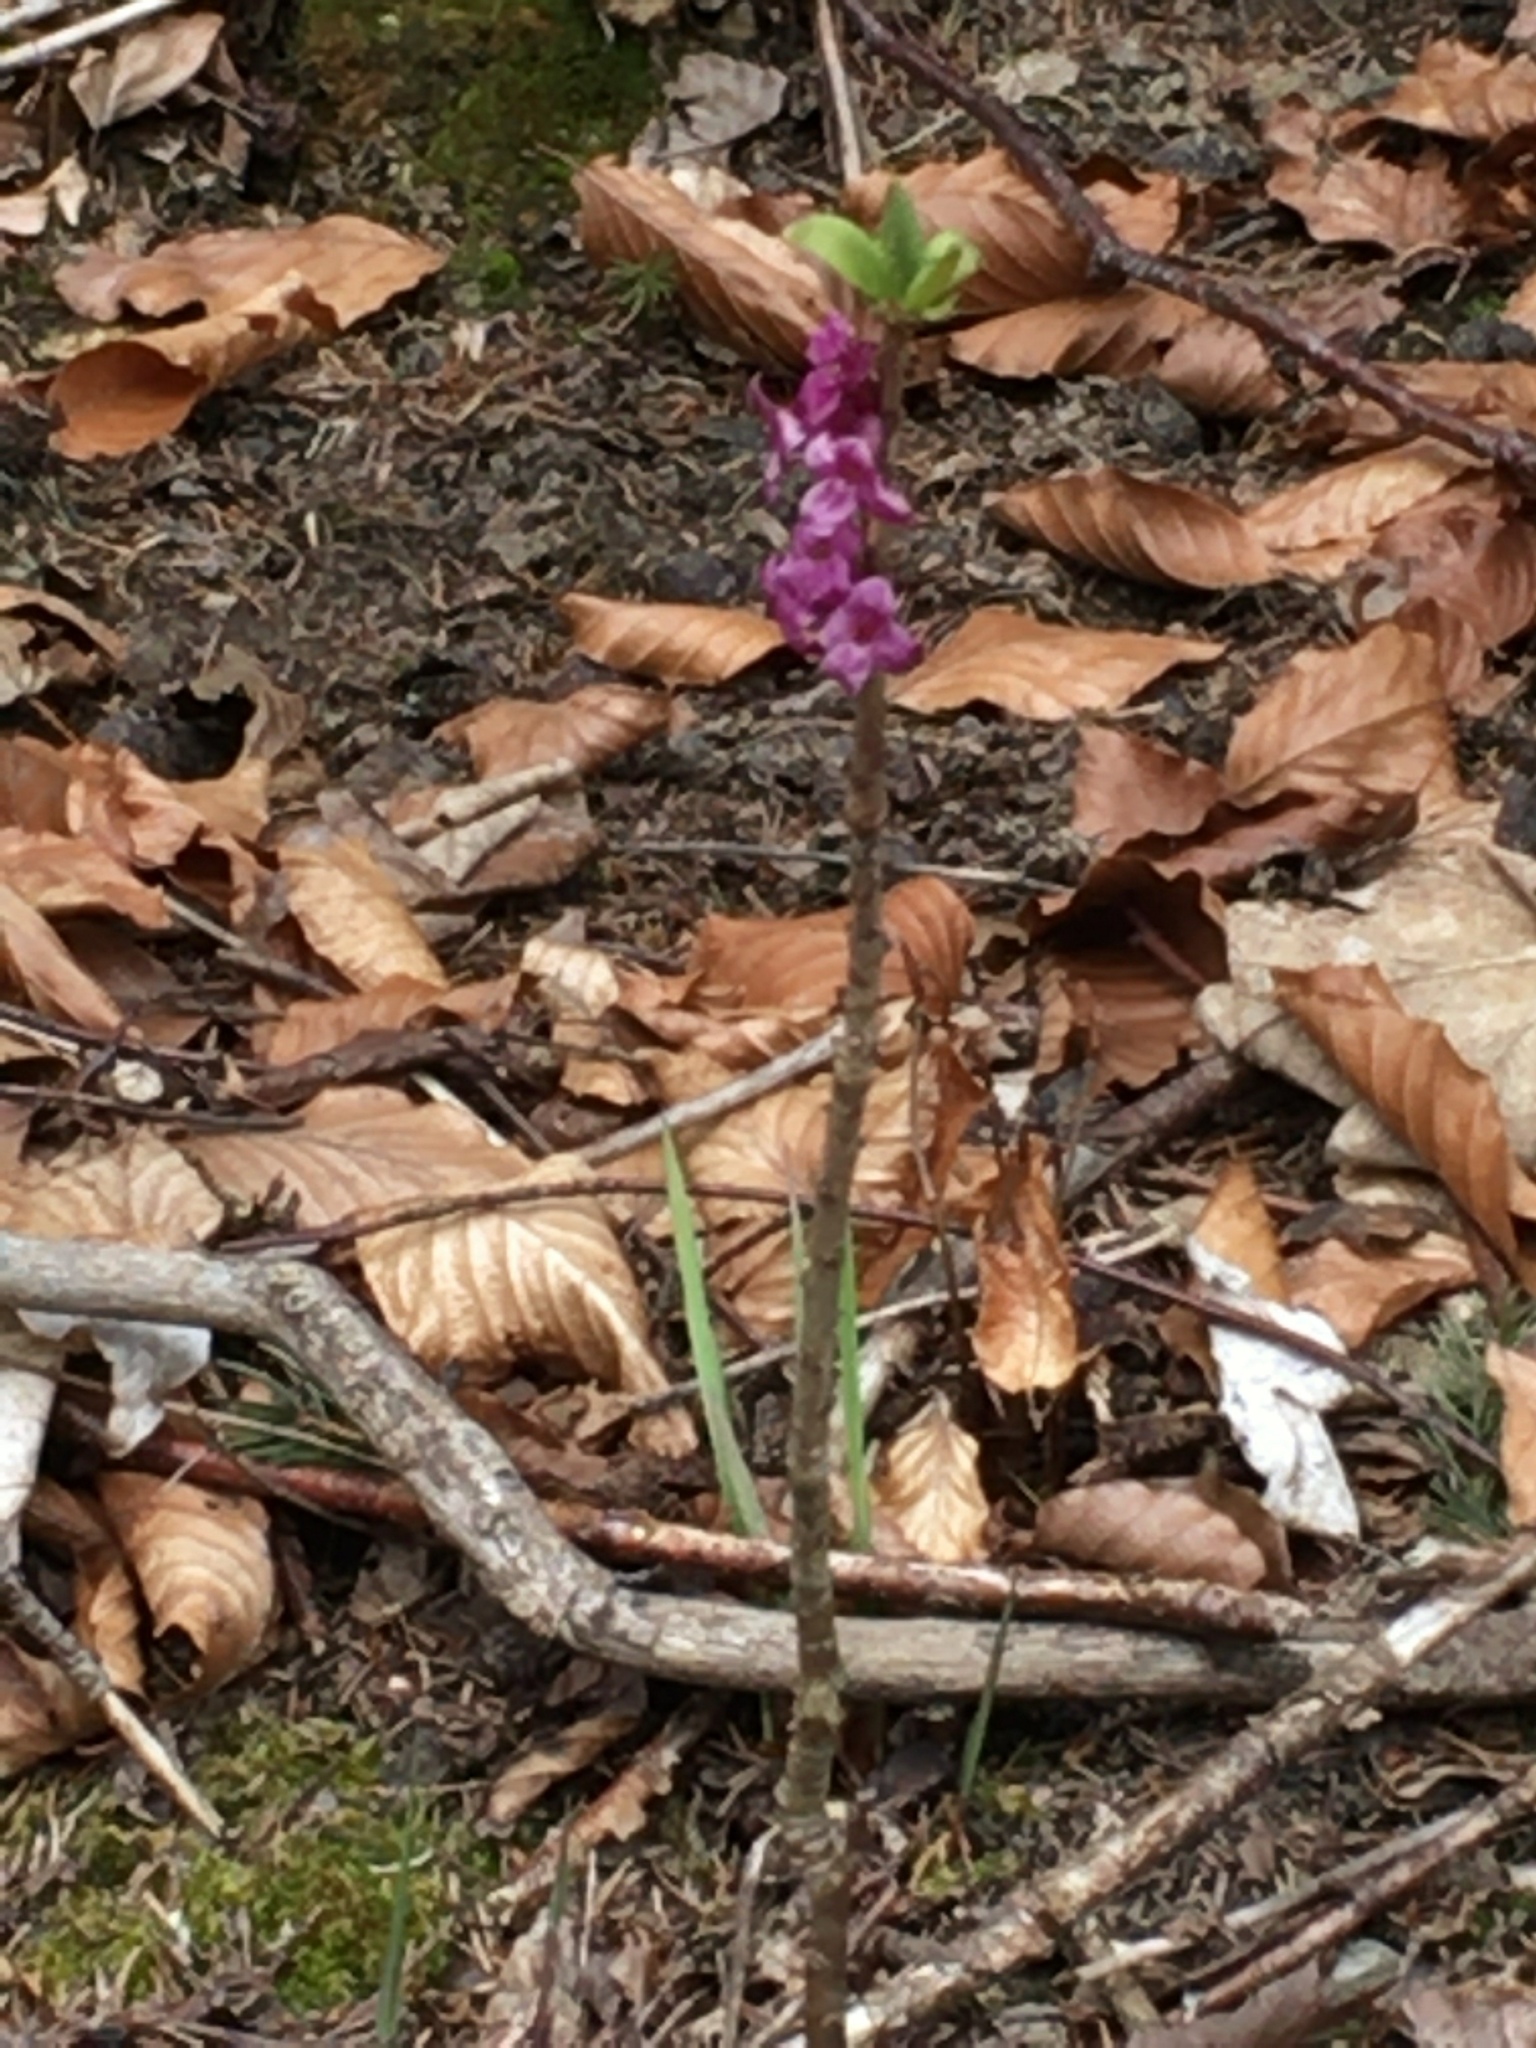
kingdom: Plantae
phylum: Tracheophyta
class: Magnoliopsida
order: Malvales
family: Thymelaeaceae
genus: Daphne
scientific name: Daphne mezereum
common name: Mezereon
